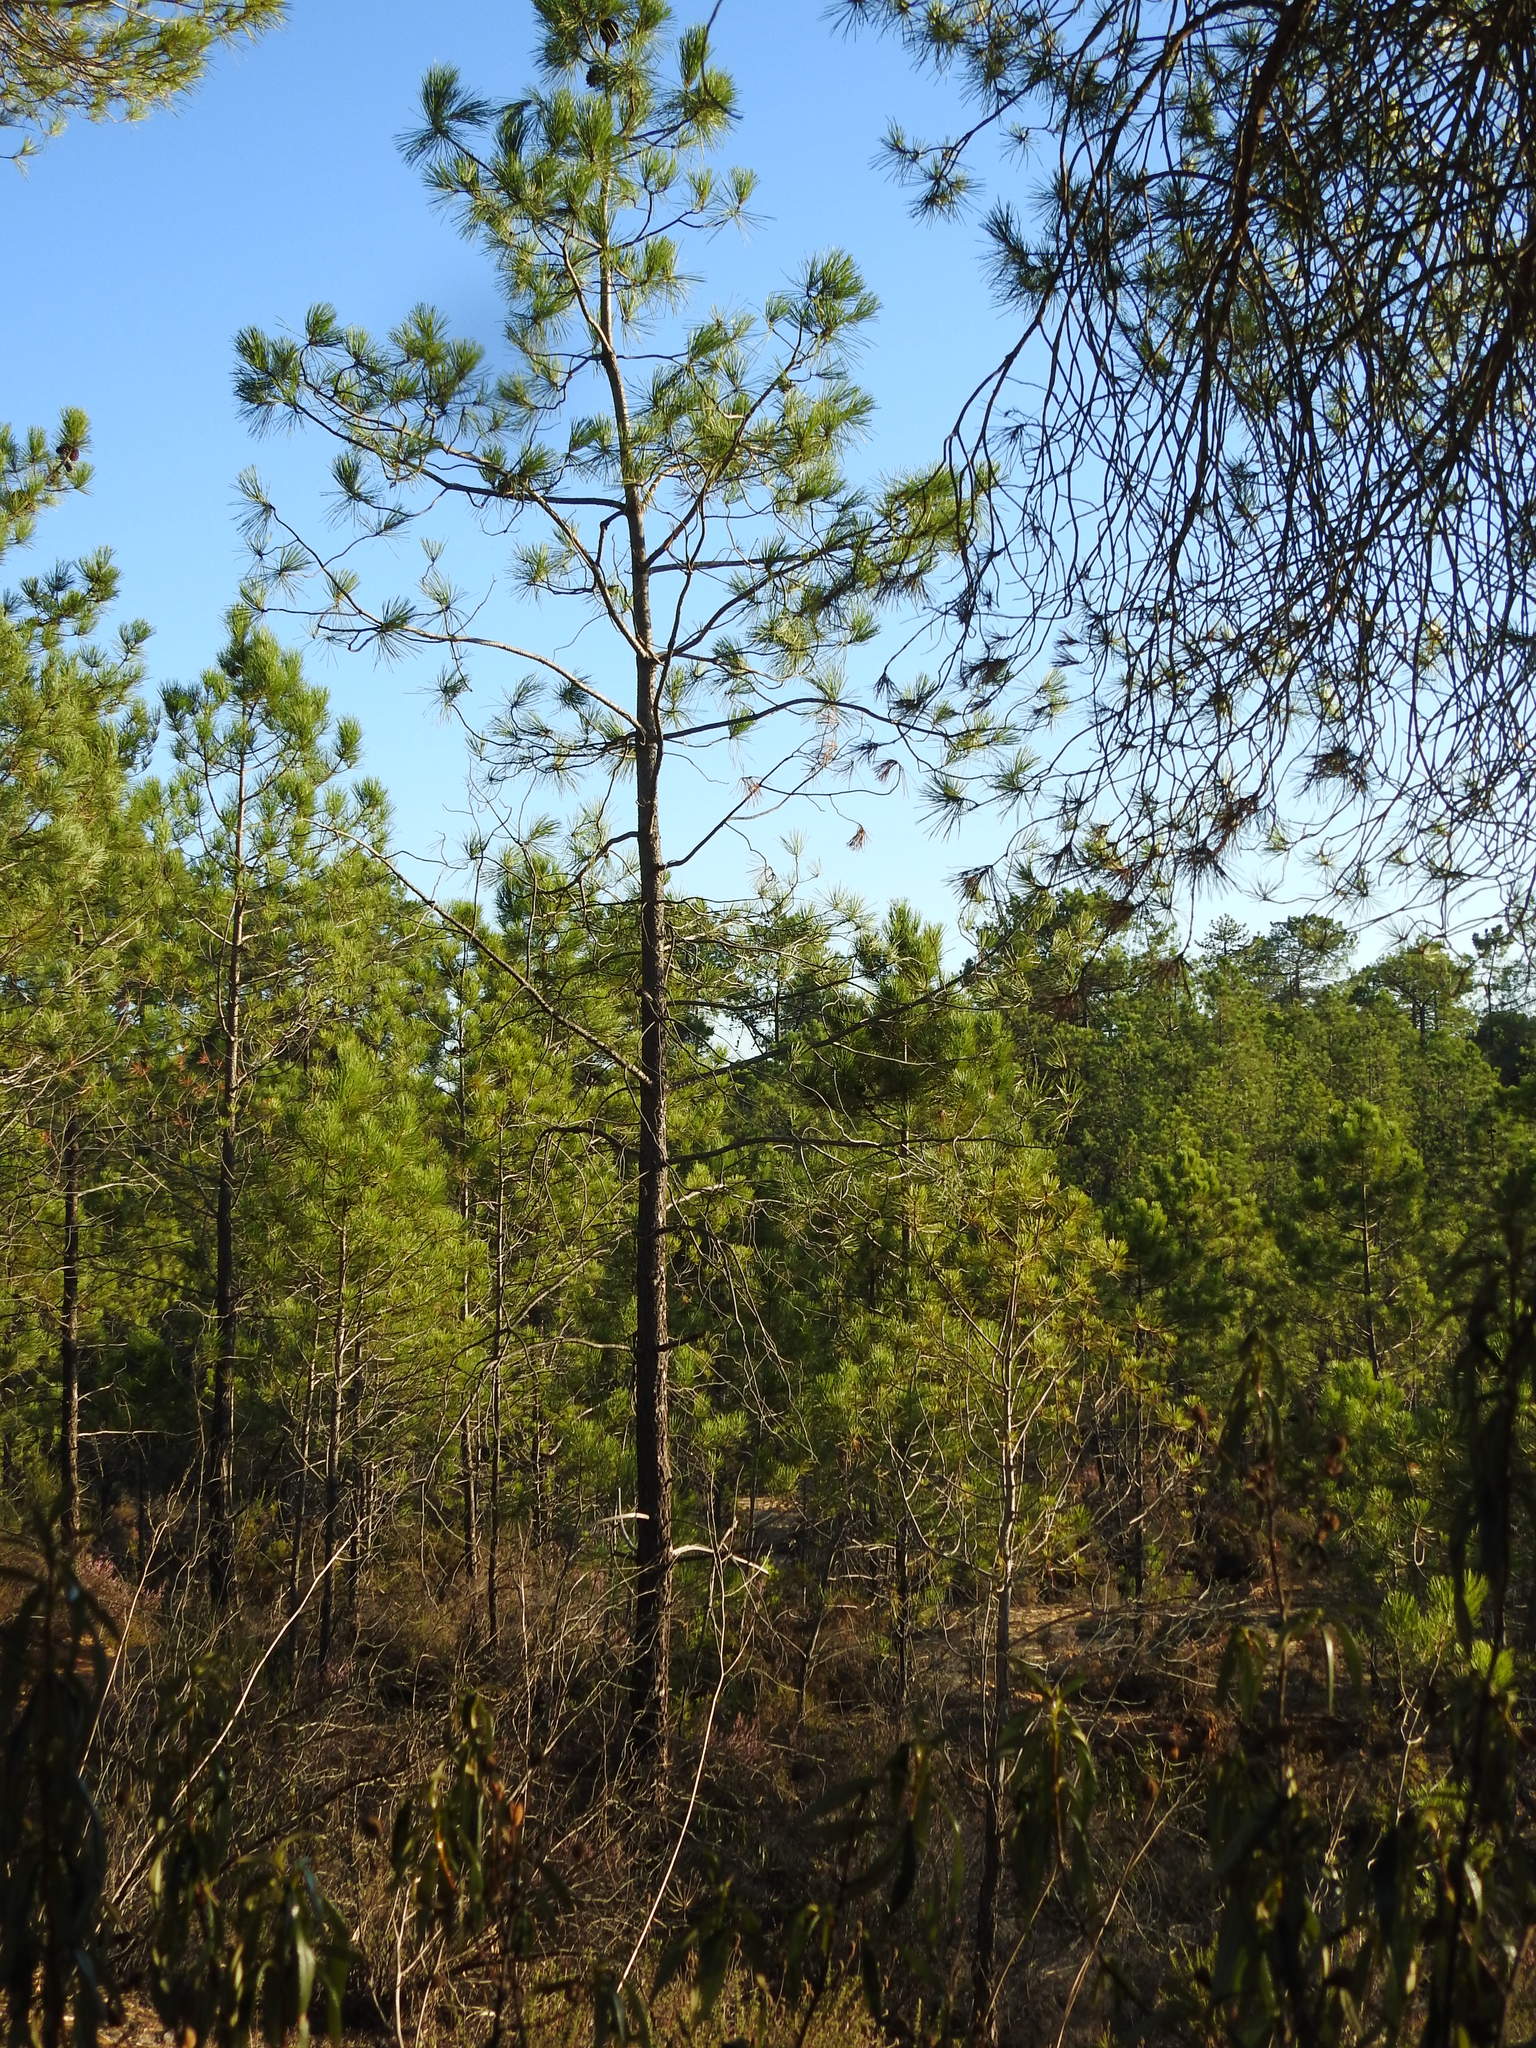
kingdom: Plantae
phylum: Tracheophyta
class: Pinopsida
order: Pinales
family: Pinaceae
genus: Pinus
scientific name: Pinus pinaster
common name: Maritime pine
